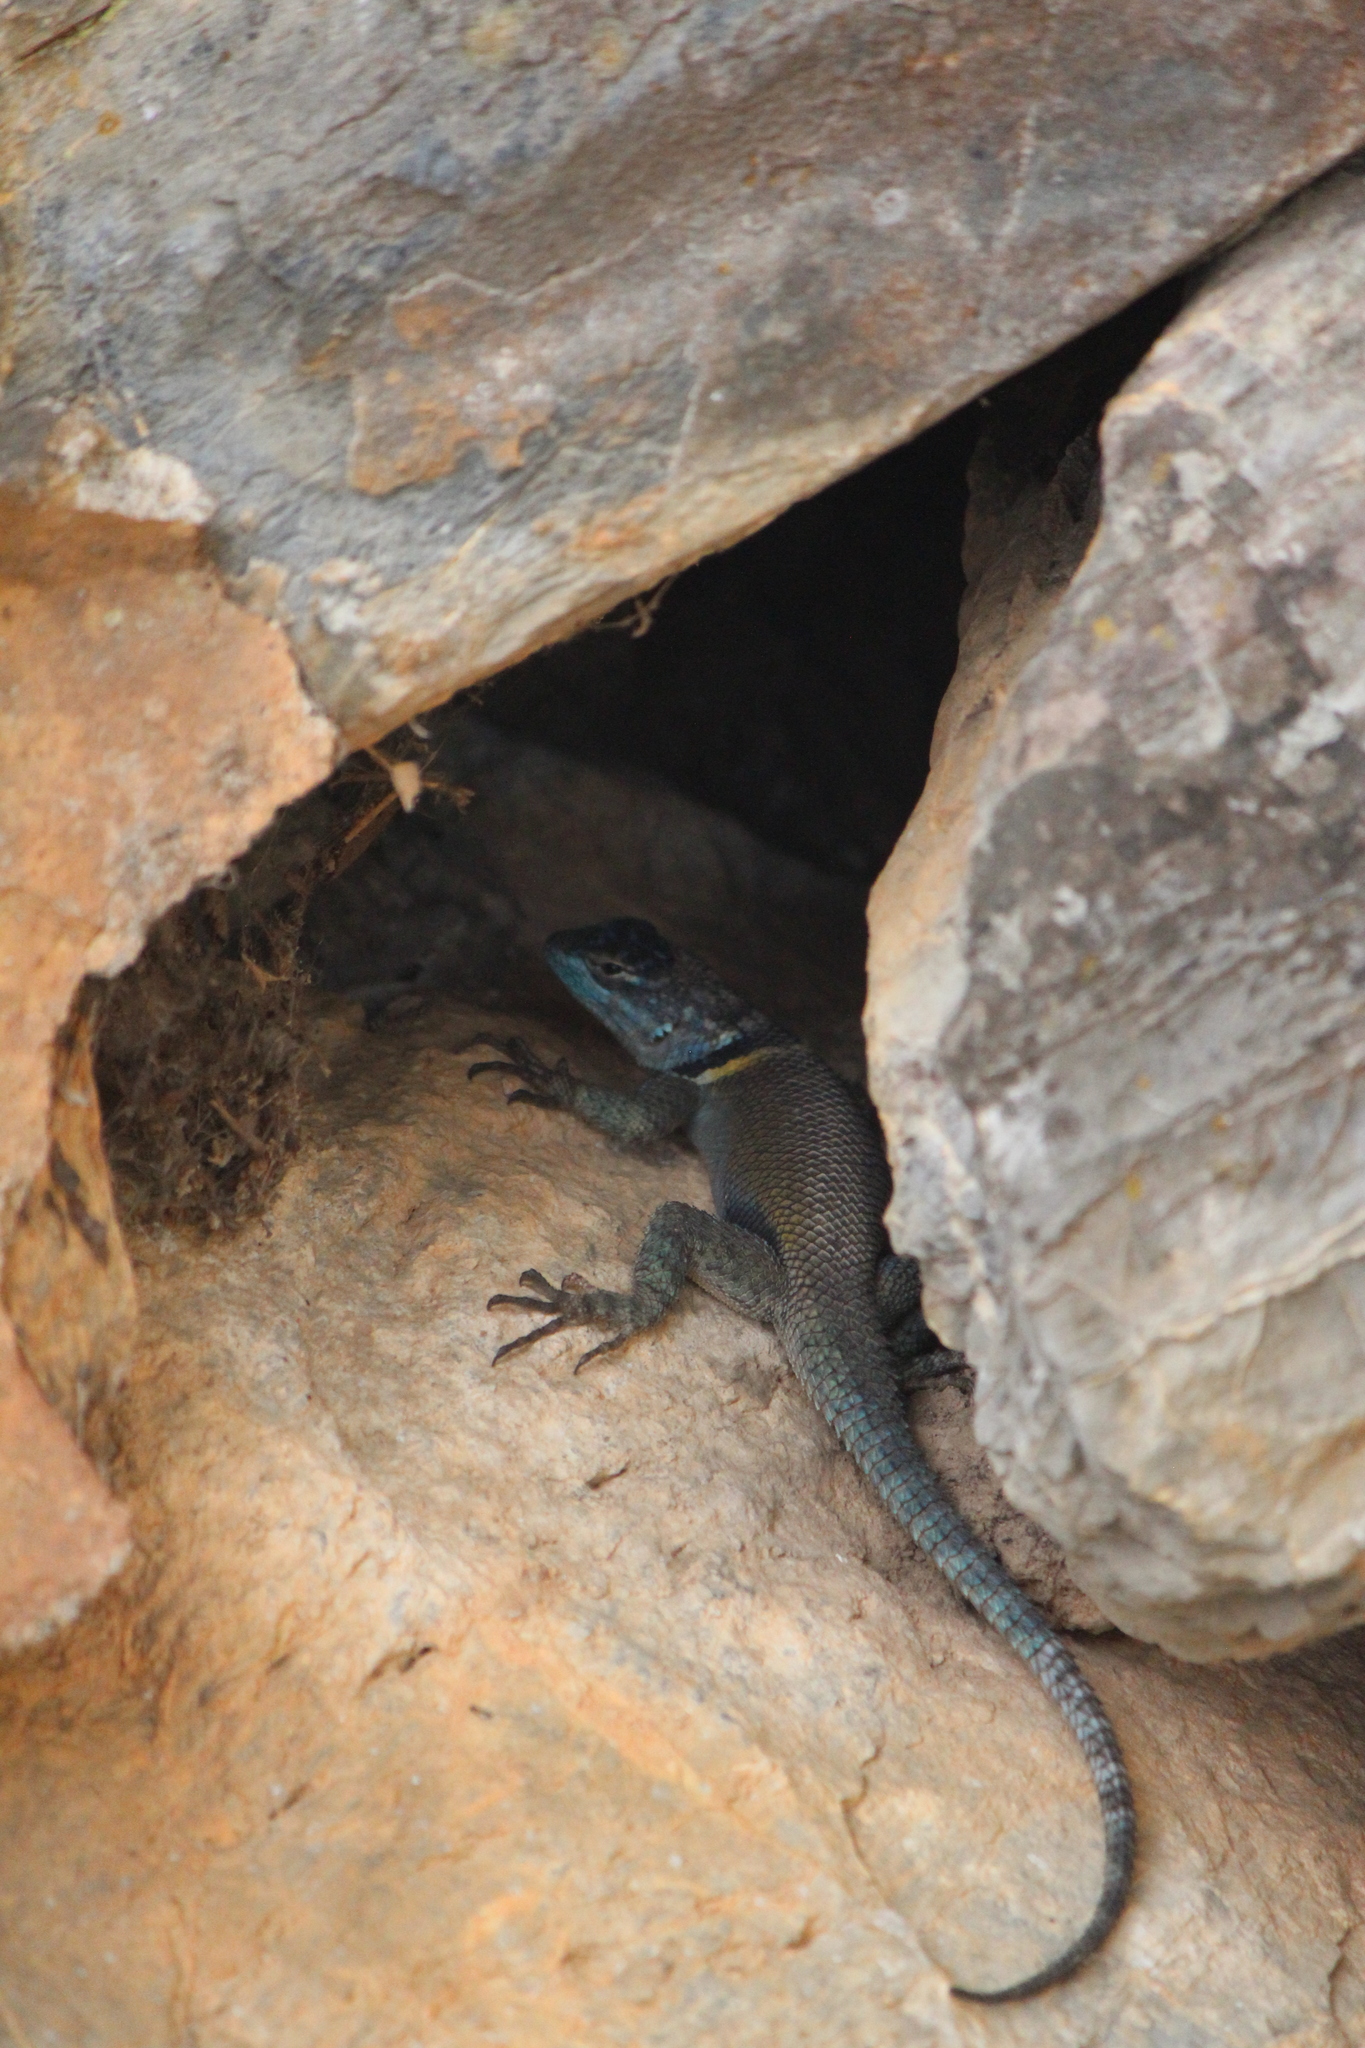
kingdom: Animalia
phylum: Chordata
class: Squamata
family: Phrynosomatidae
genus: Sceloporus
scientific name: Sceloporus minor
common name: Minor lizard
